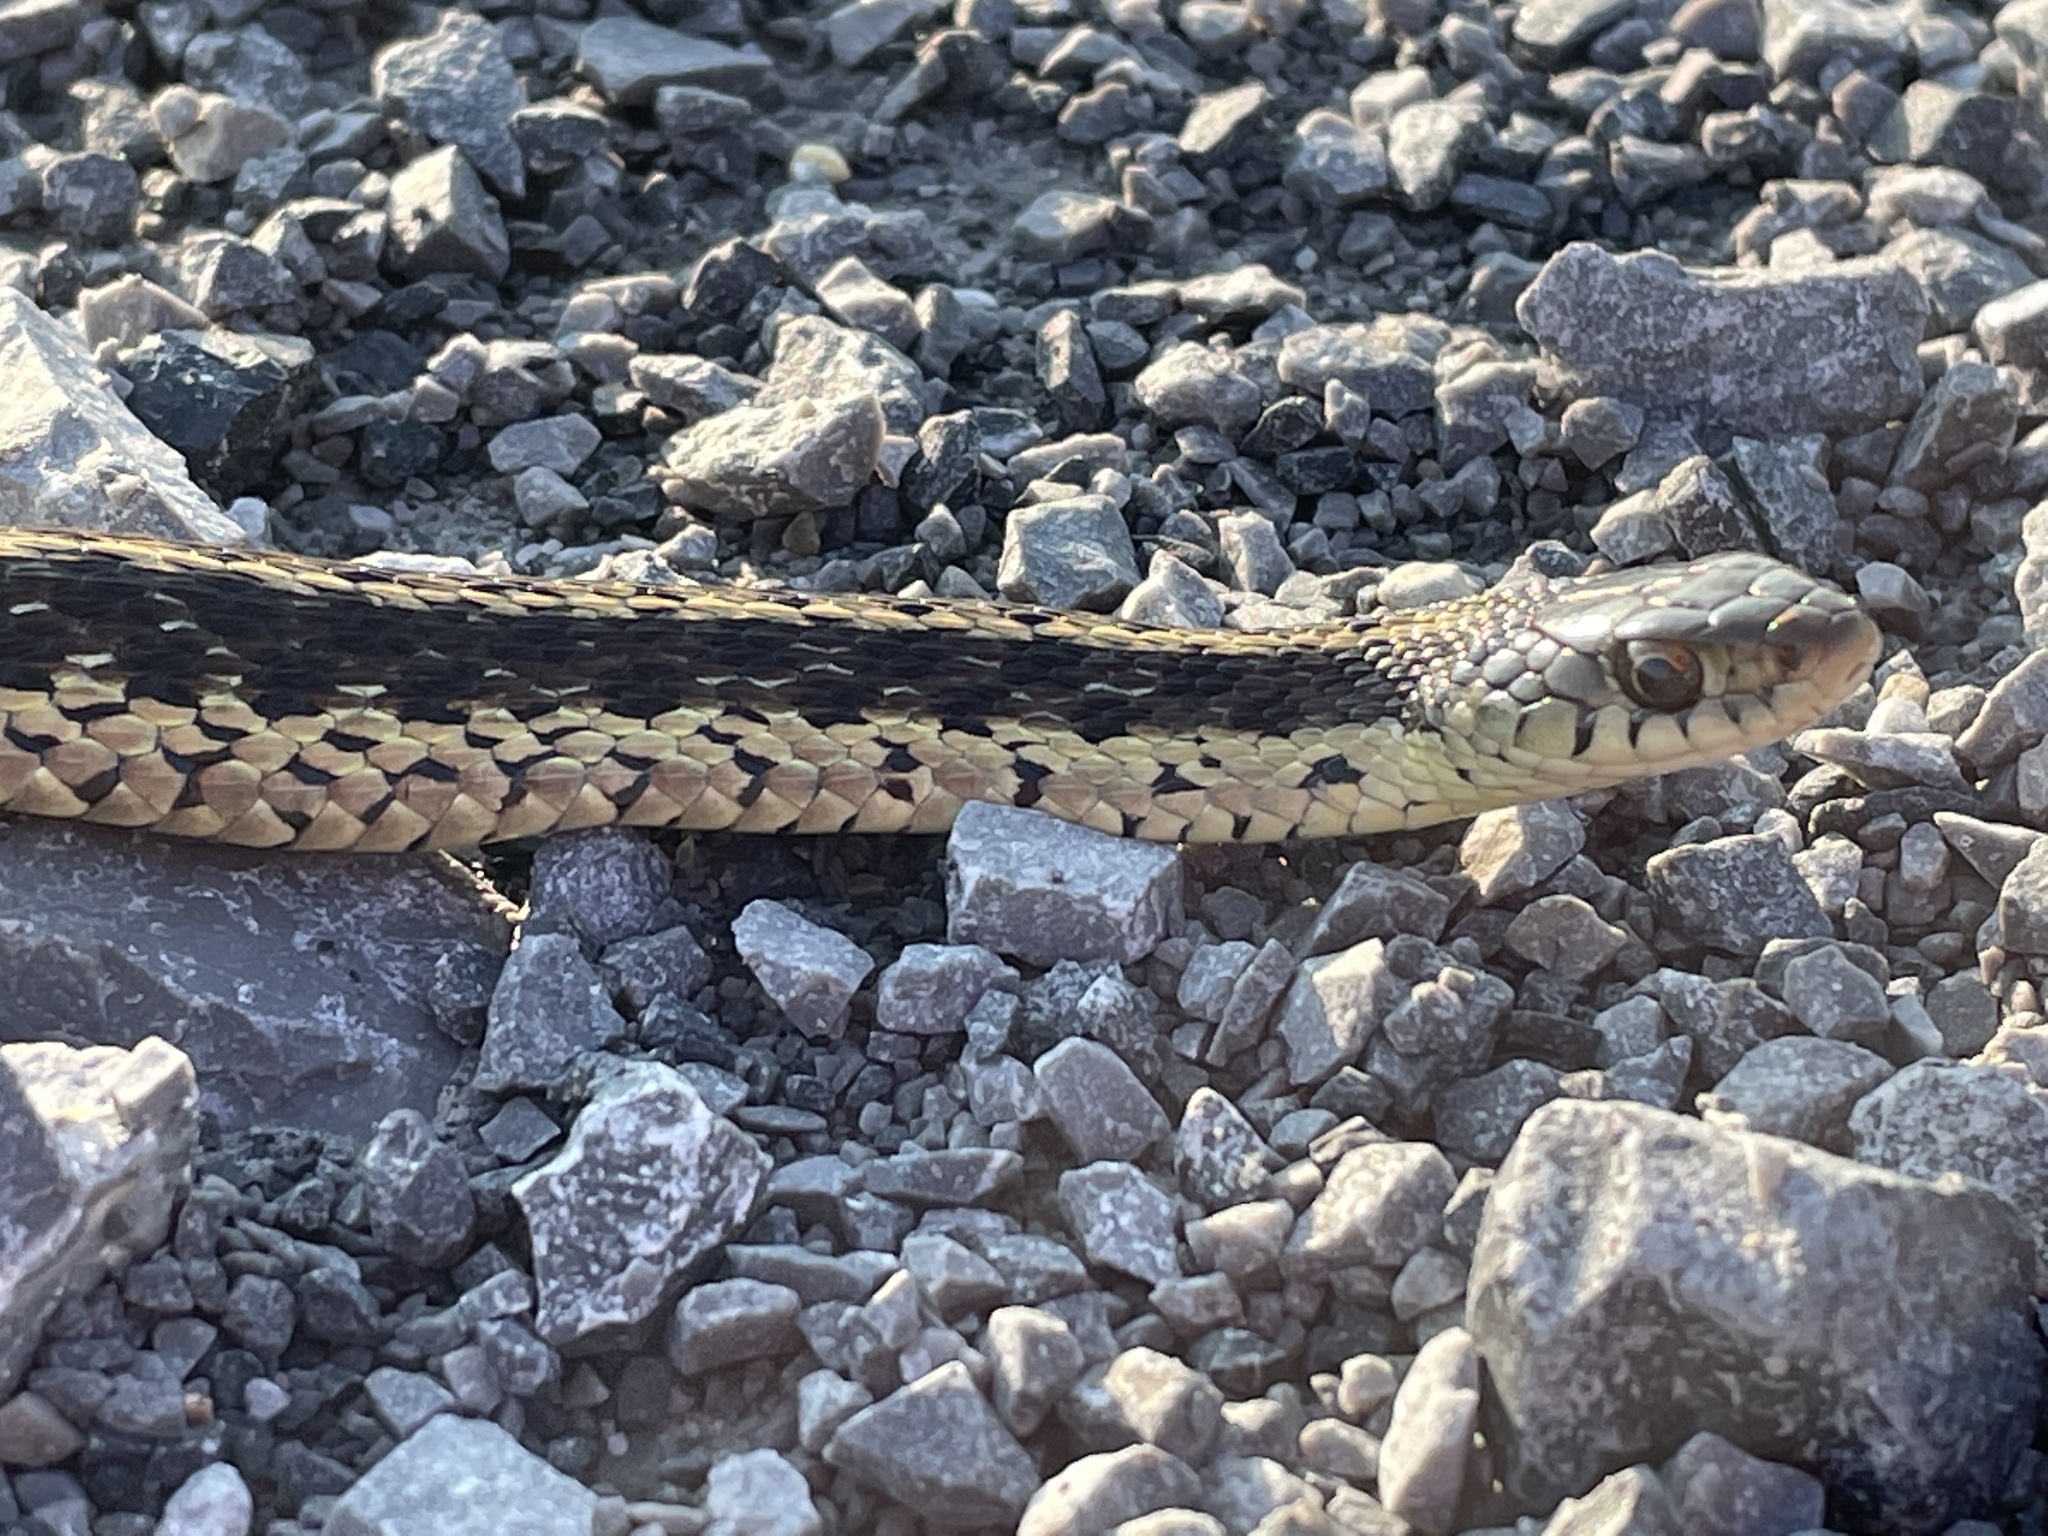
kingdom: Animalia
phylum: Chordata
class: Squamata
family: Colubridae
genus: Thamnophis
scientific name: Thamnophis sirtalis
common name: Common garter snake
